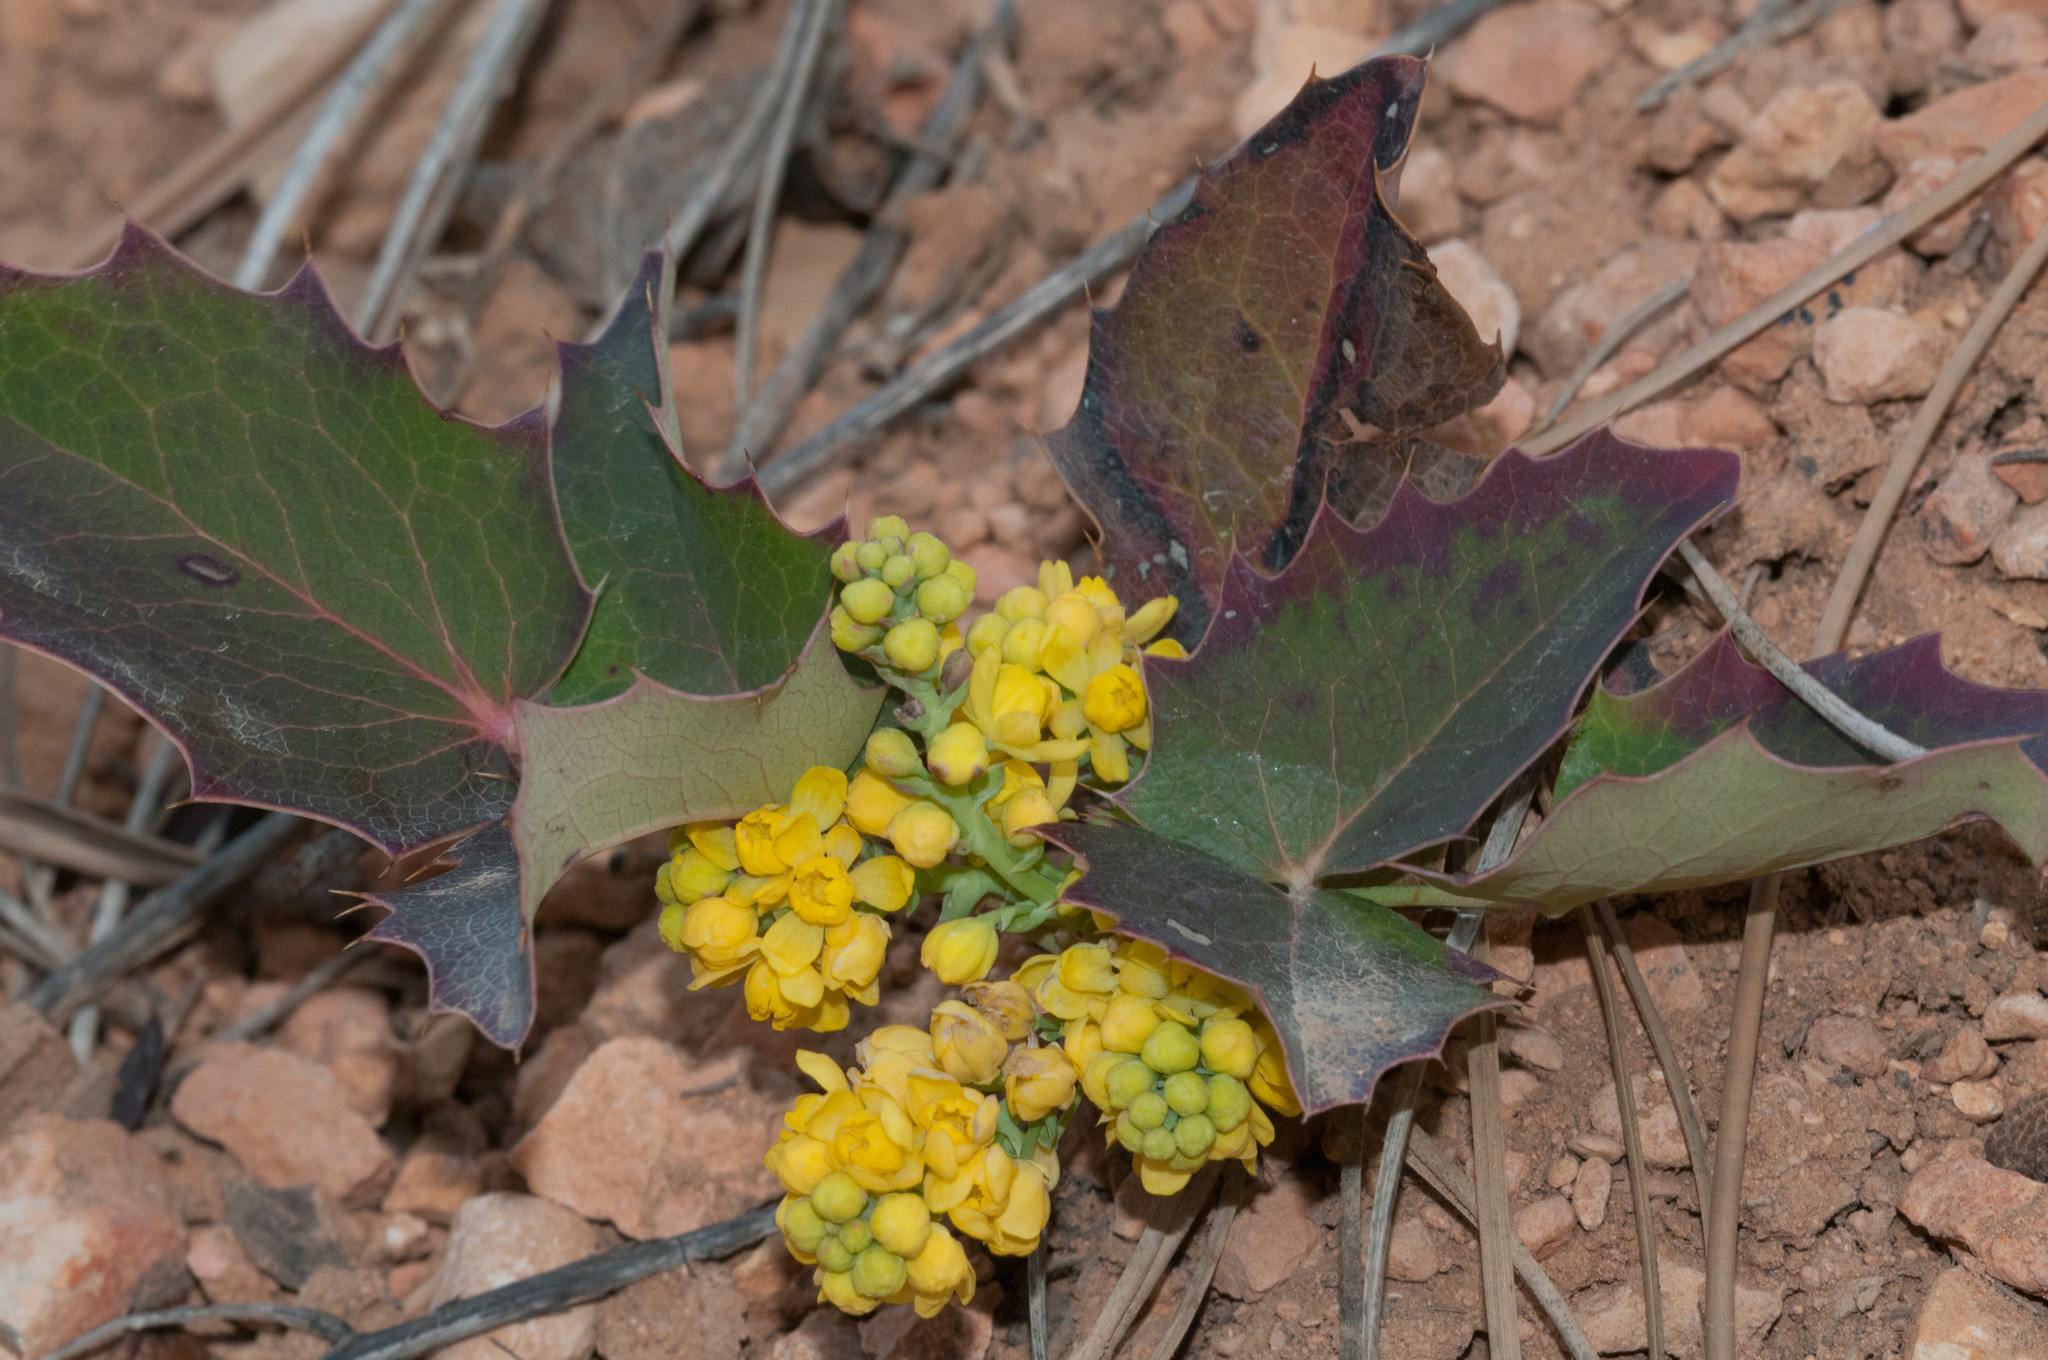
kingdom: Plantae
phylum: Tracheophyta
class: Magnoliopsida
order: Ranunculales
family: Berberidaceae
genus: Mahonia
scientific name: Mahonia repens
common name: Creeping oregon-grape
